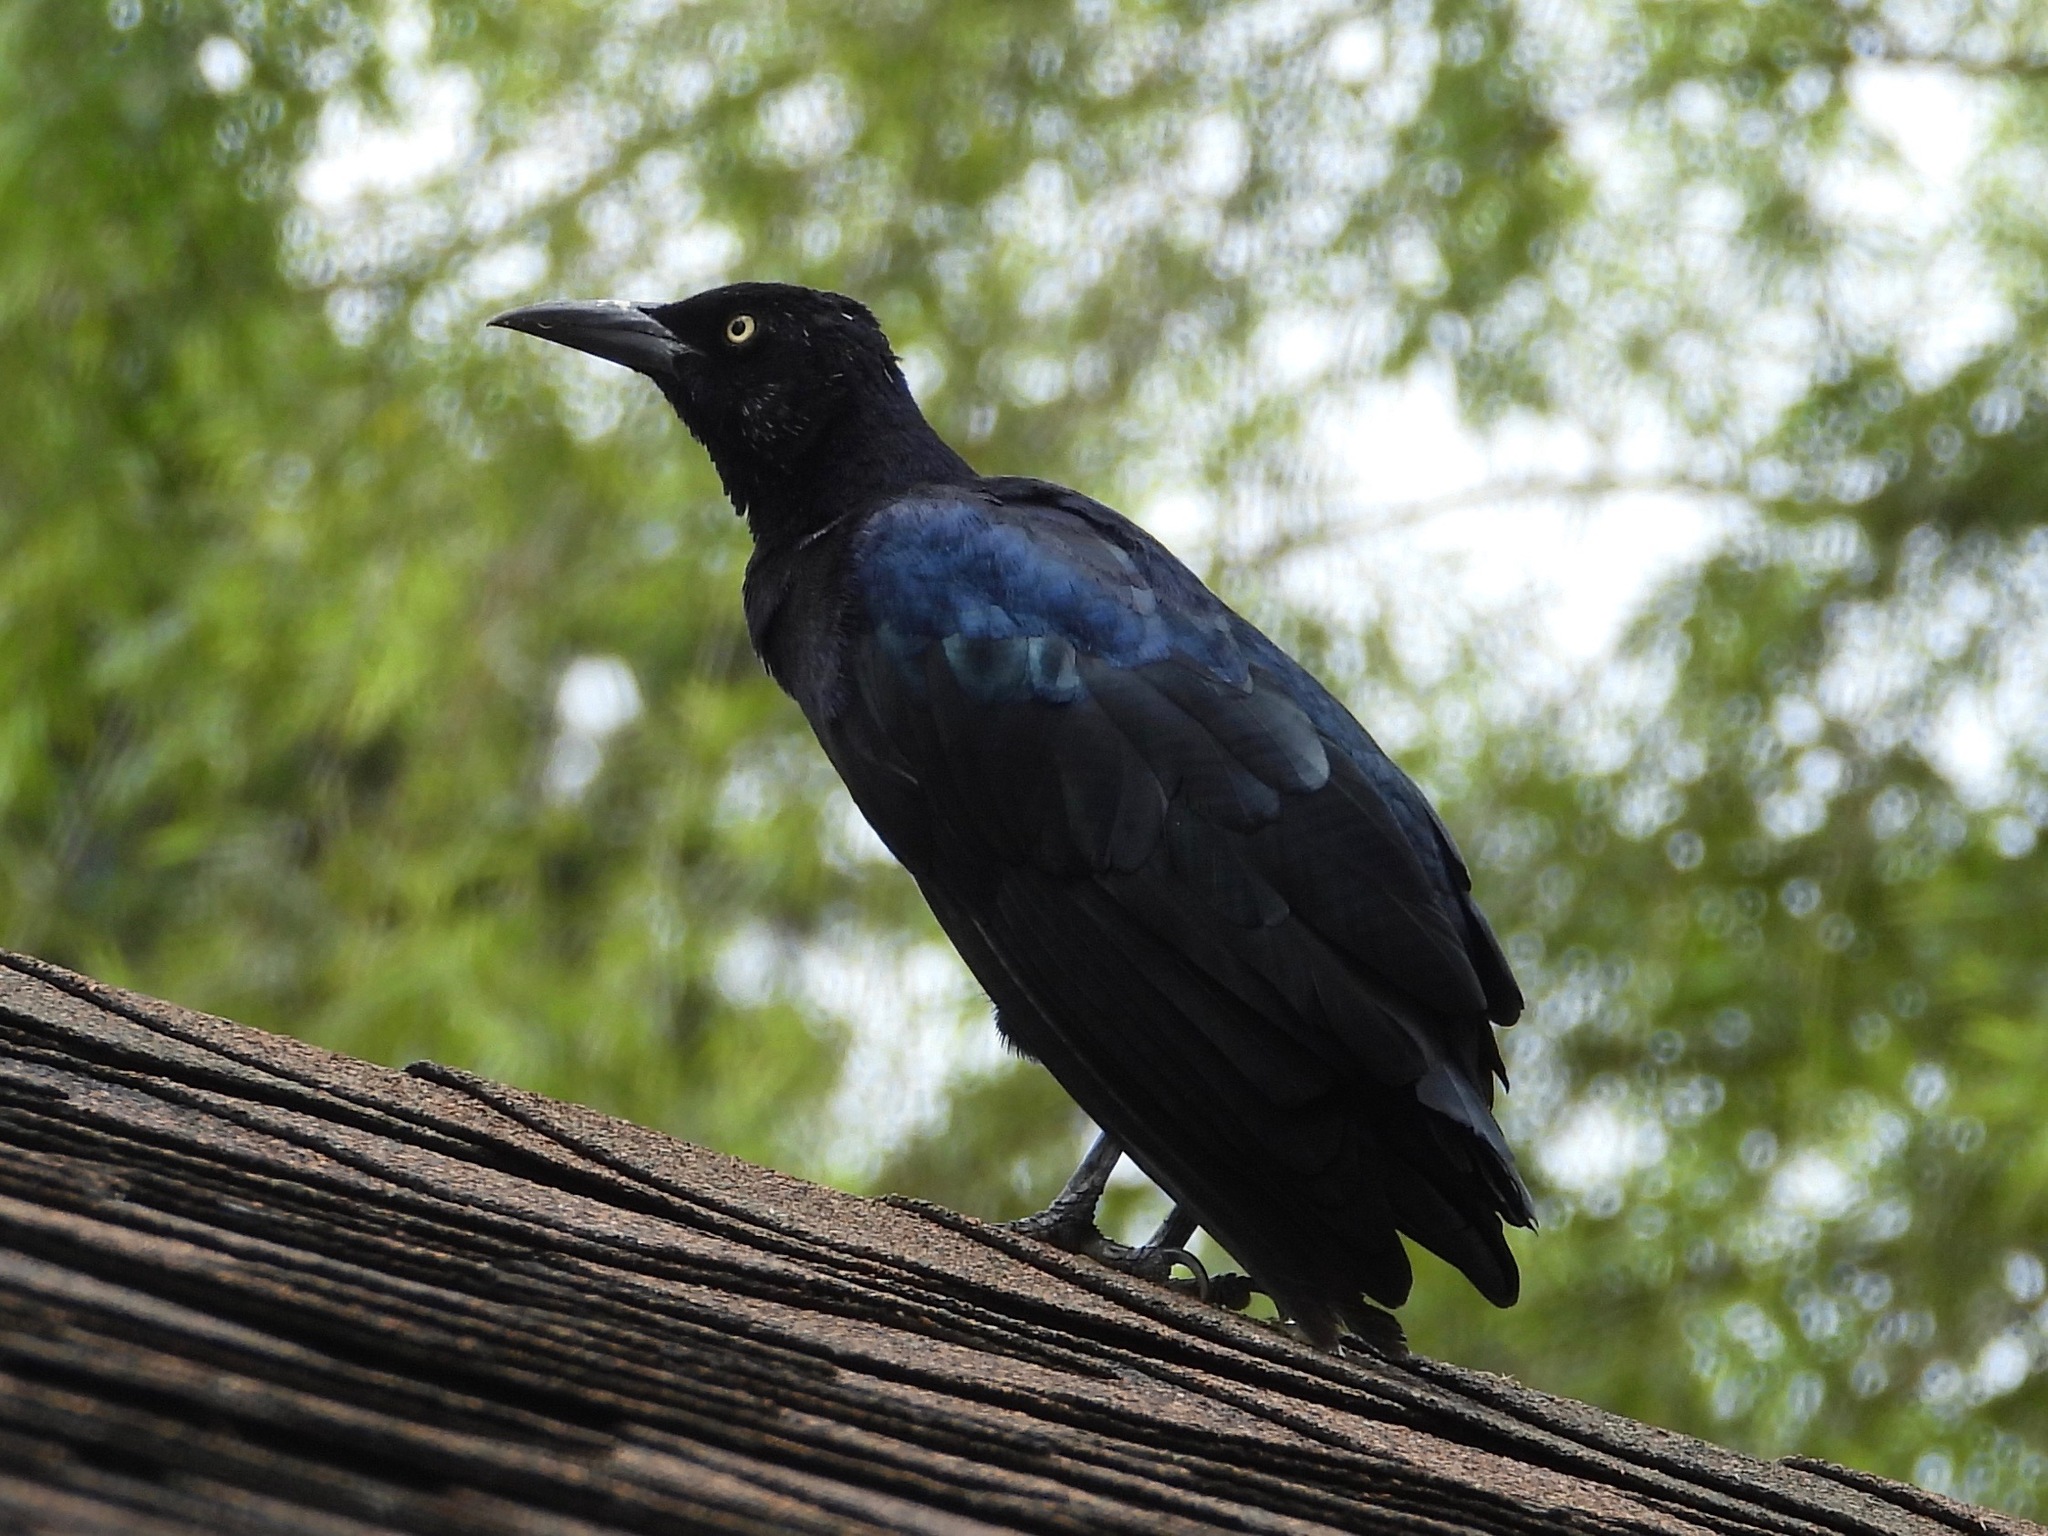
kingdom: Animalia
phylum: Chordata
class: Aves
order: Passeriformes
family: Icteridae
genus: Quiscalus
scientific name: Quiscalus mexicanus
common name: Great-tailed grackle
